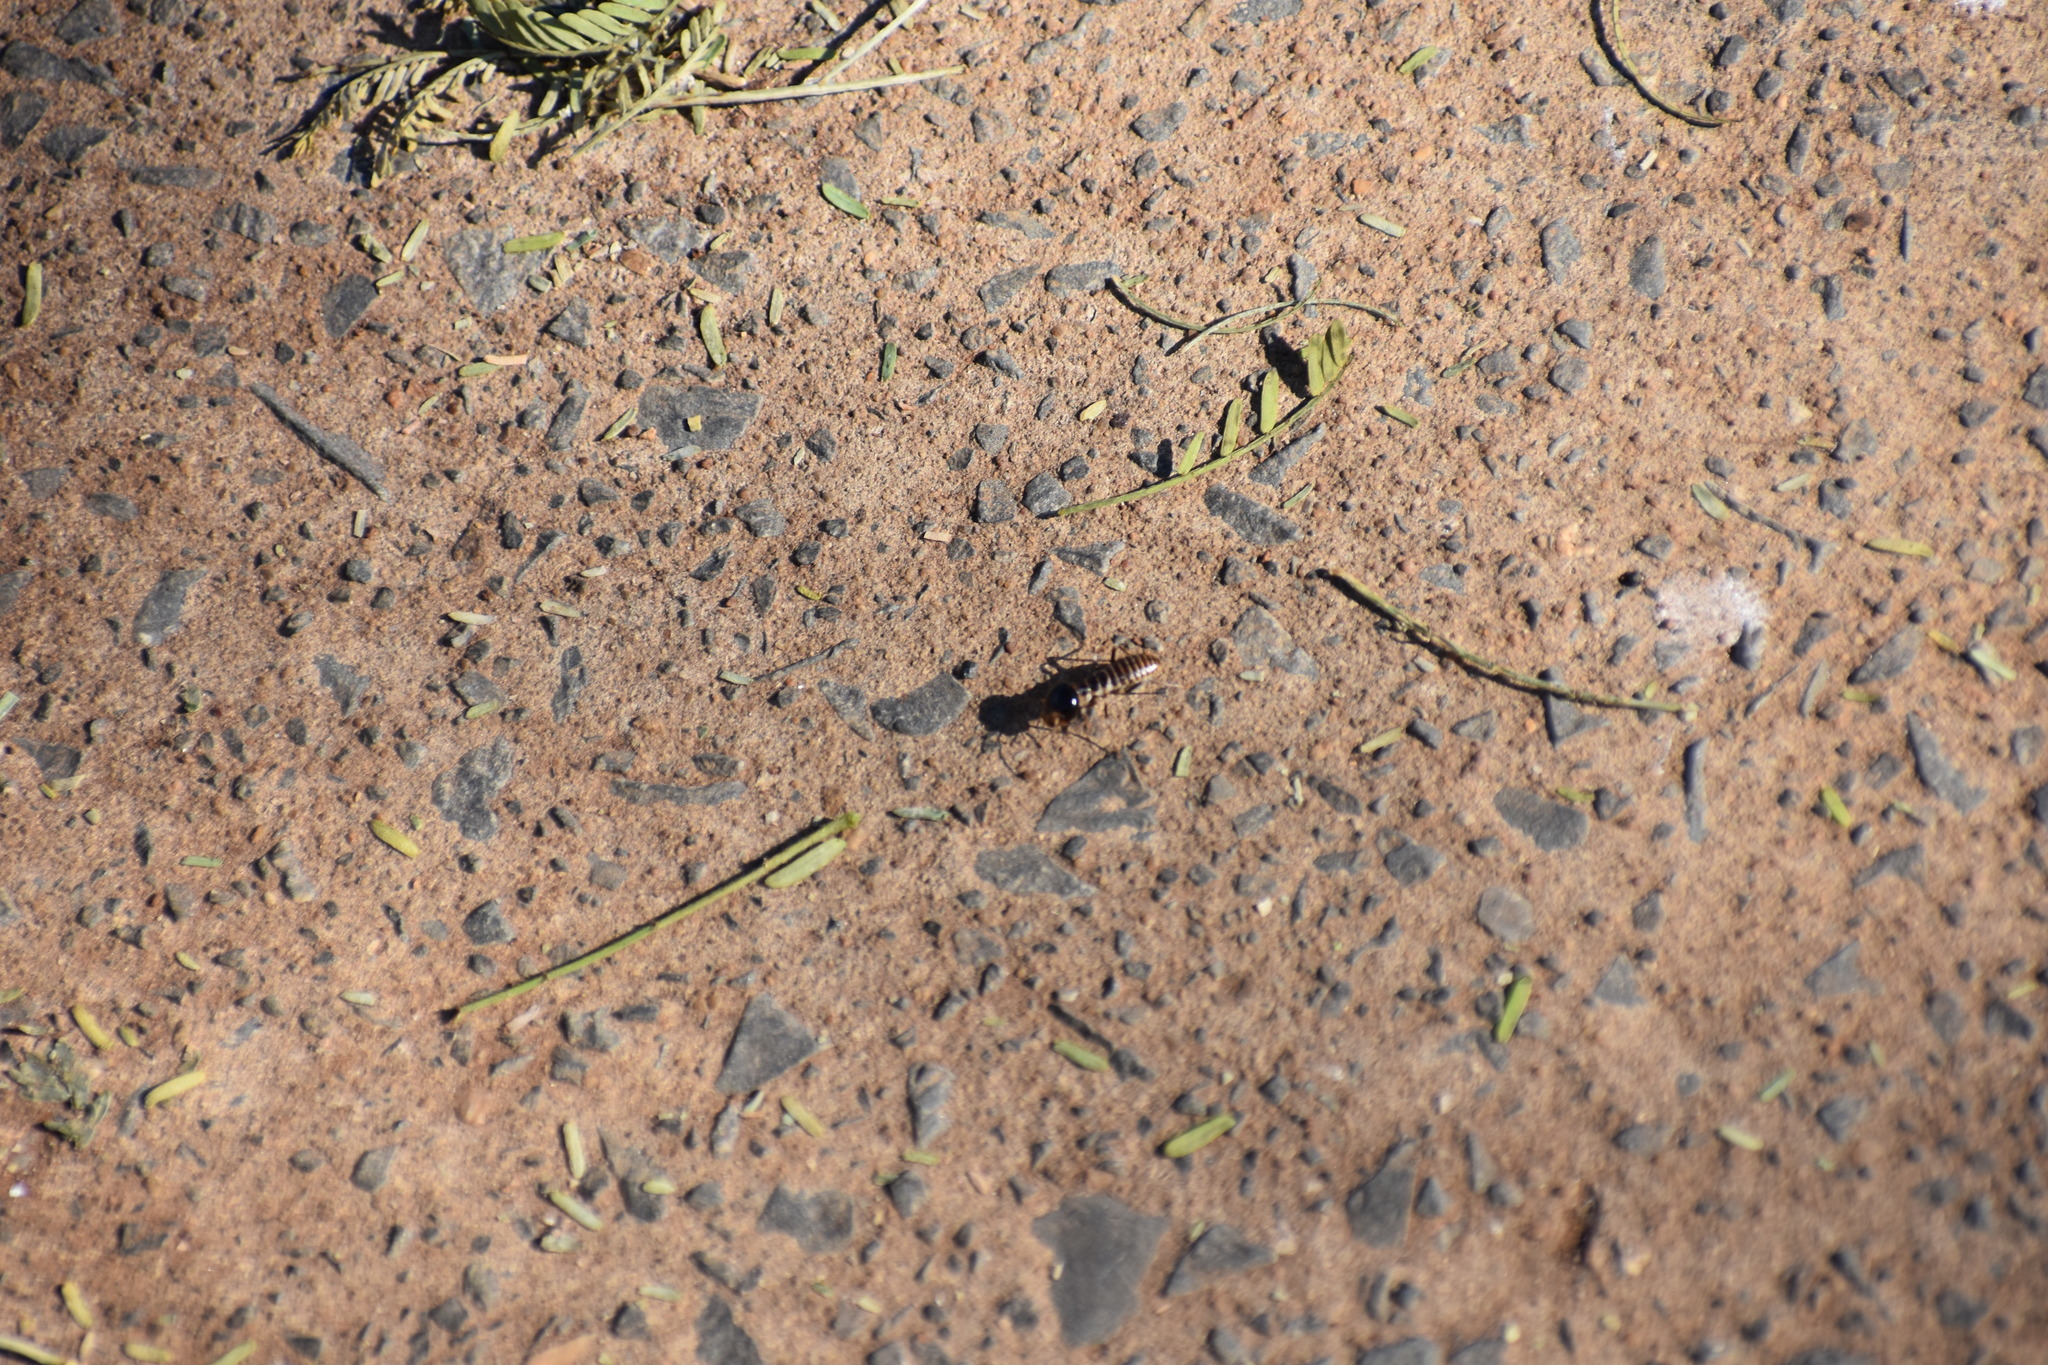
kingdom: Animalia
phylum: Arthropoda
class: Insecta
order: Blattodea
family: Hodotermitidae
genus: Hodotermes
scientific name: Hodotermes mossambicus
